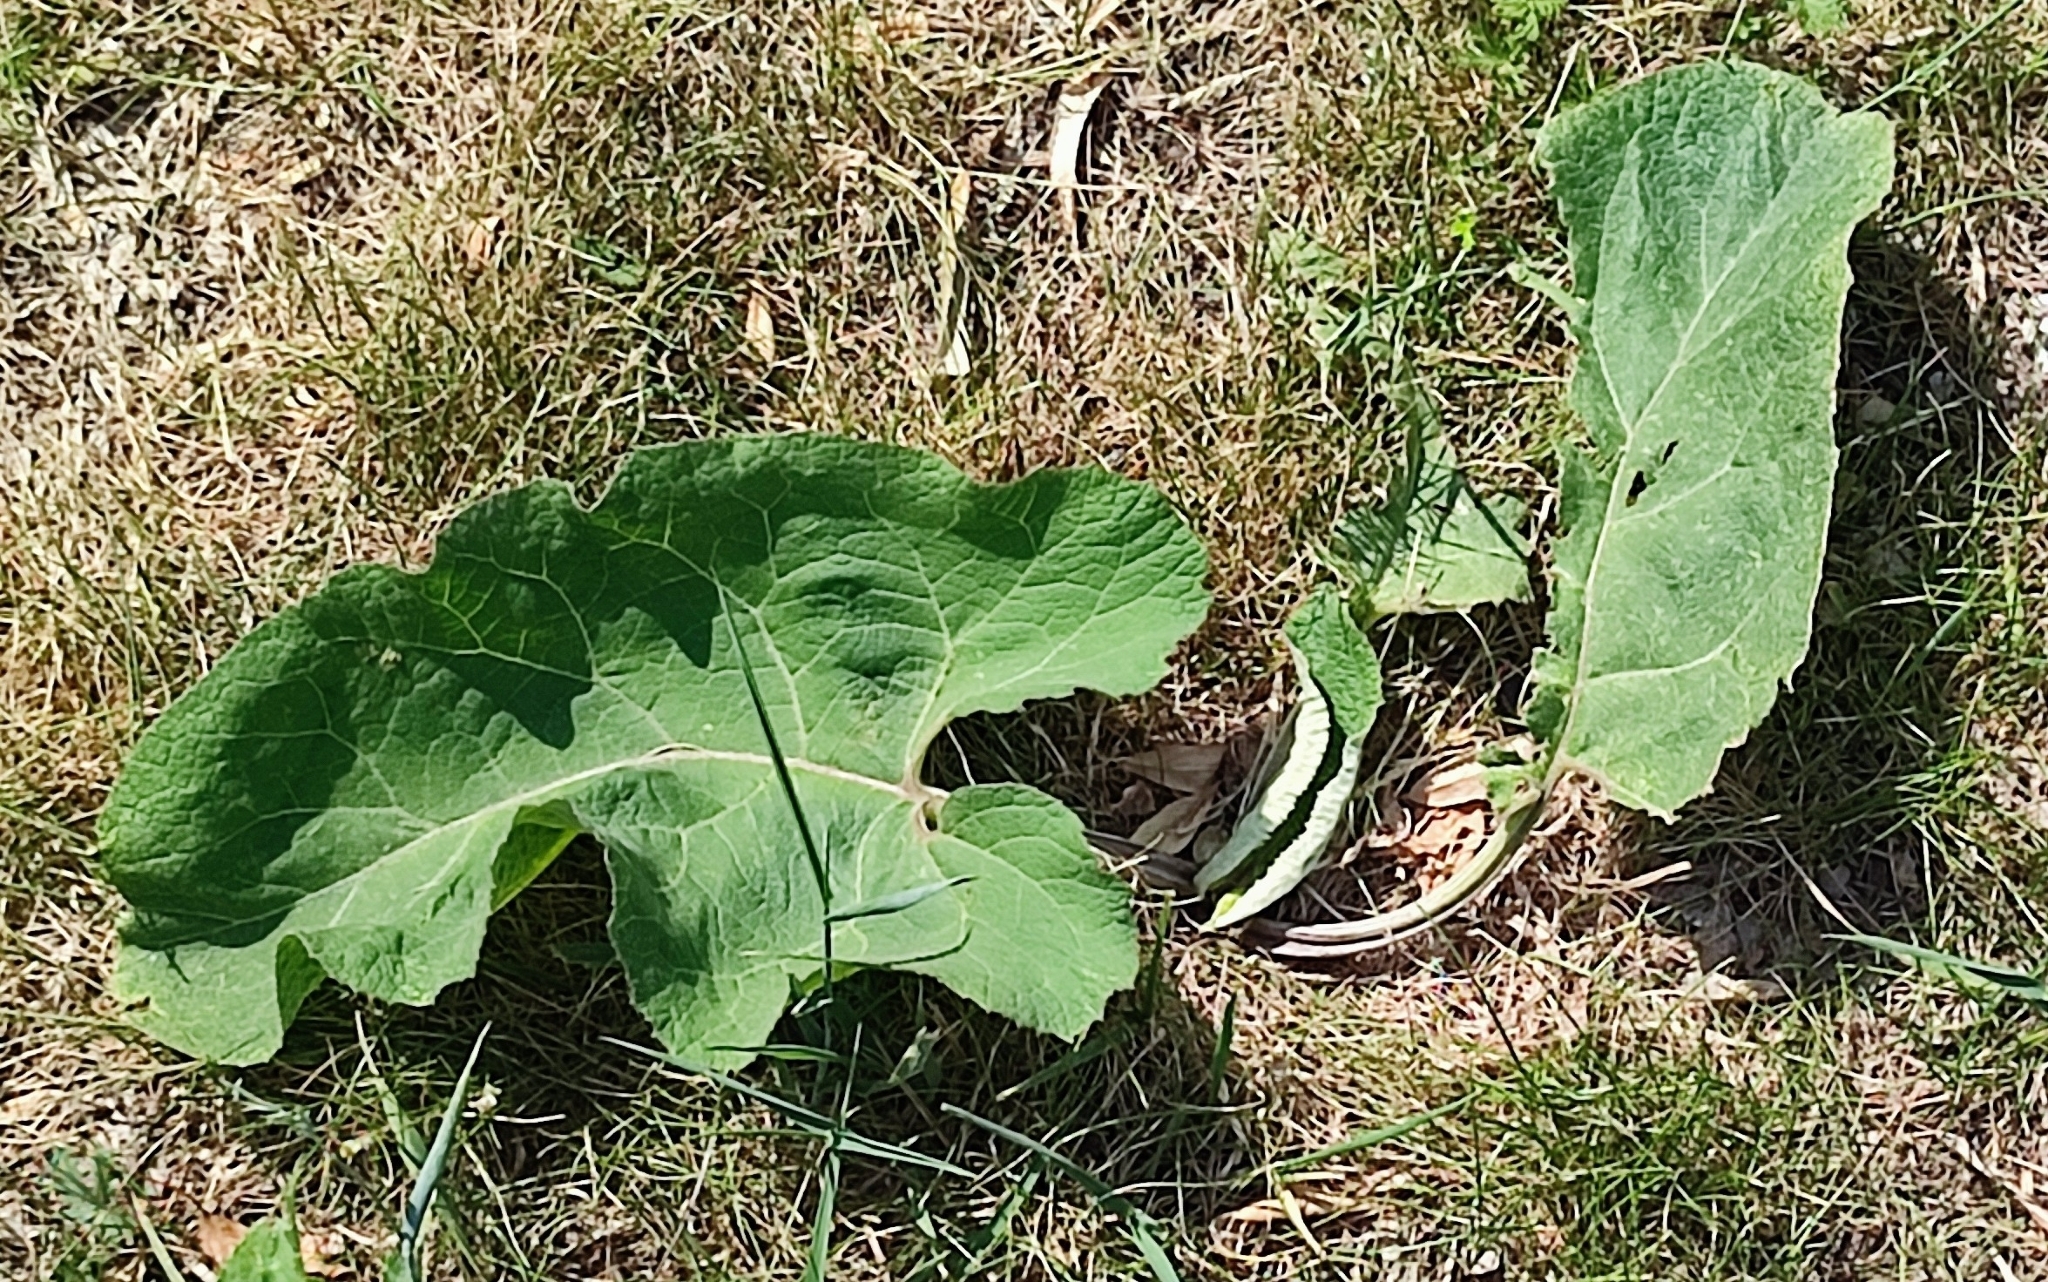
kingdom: Plantae
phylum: Tracheophyta
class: Magnoliopsida
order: Asterales
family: Asteraceae
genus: Arctium
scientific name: Arctium tomentosum
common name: Woolly burdock
